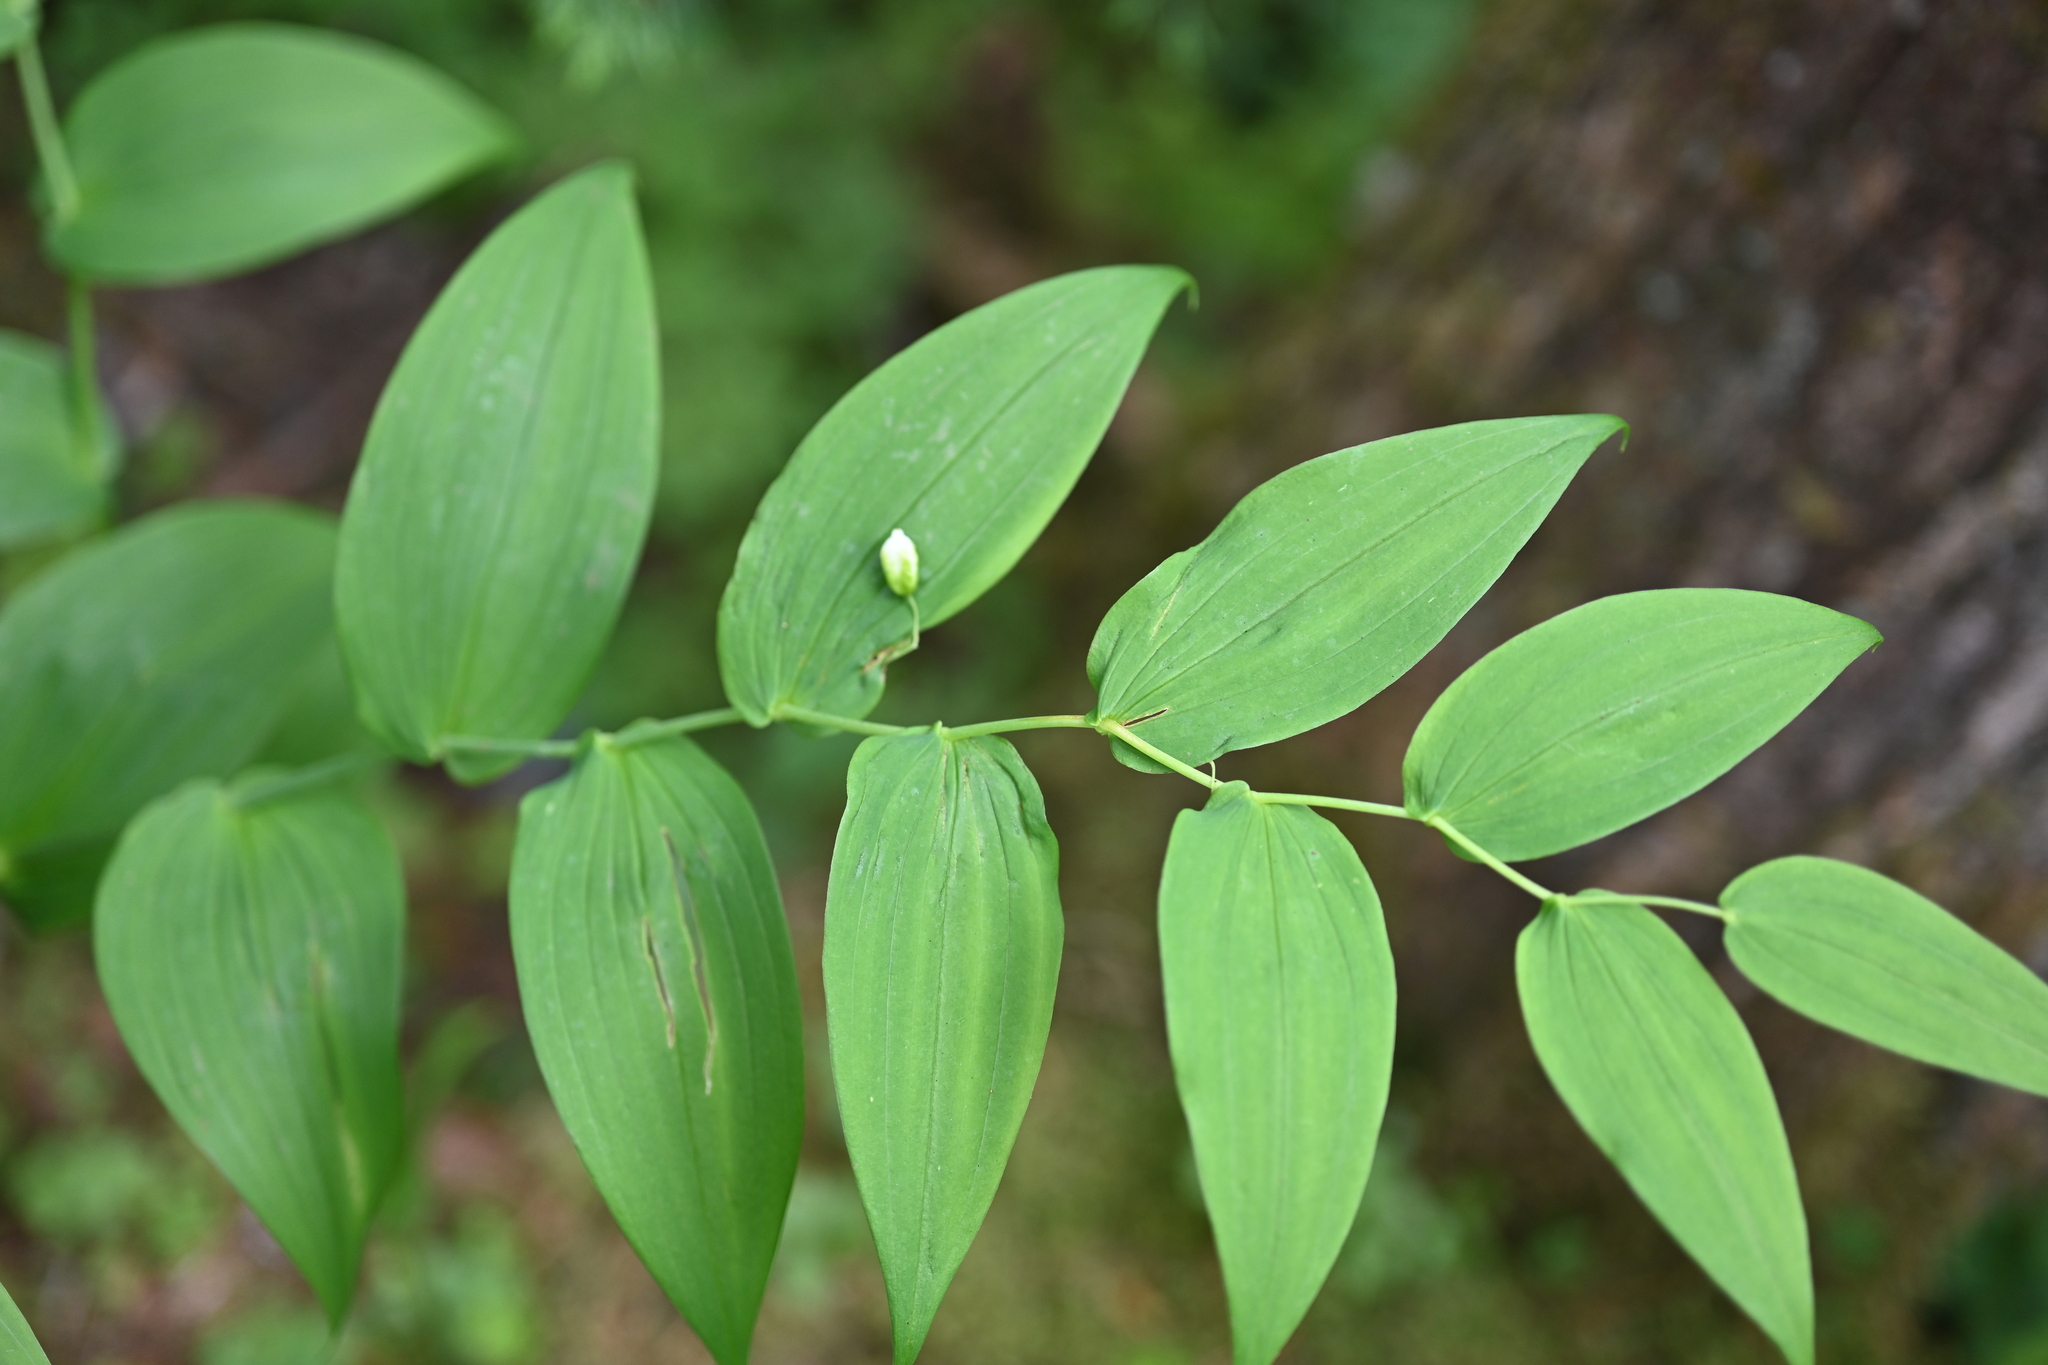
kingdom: Plantae
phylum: Tracheophyta
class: Liliopsida
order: Liliales
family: Liliaceae
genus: Streptopus
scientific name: Streptopus amplexifolius
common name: Clasp twisted stalk
